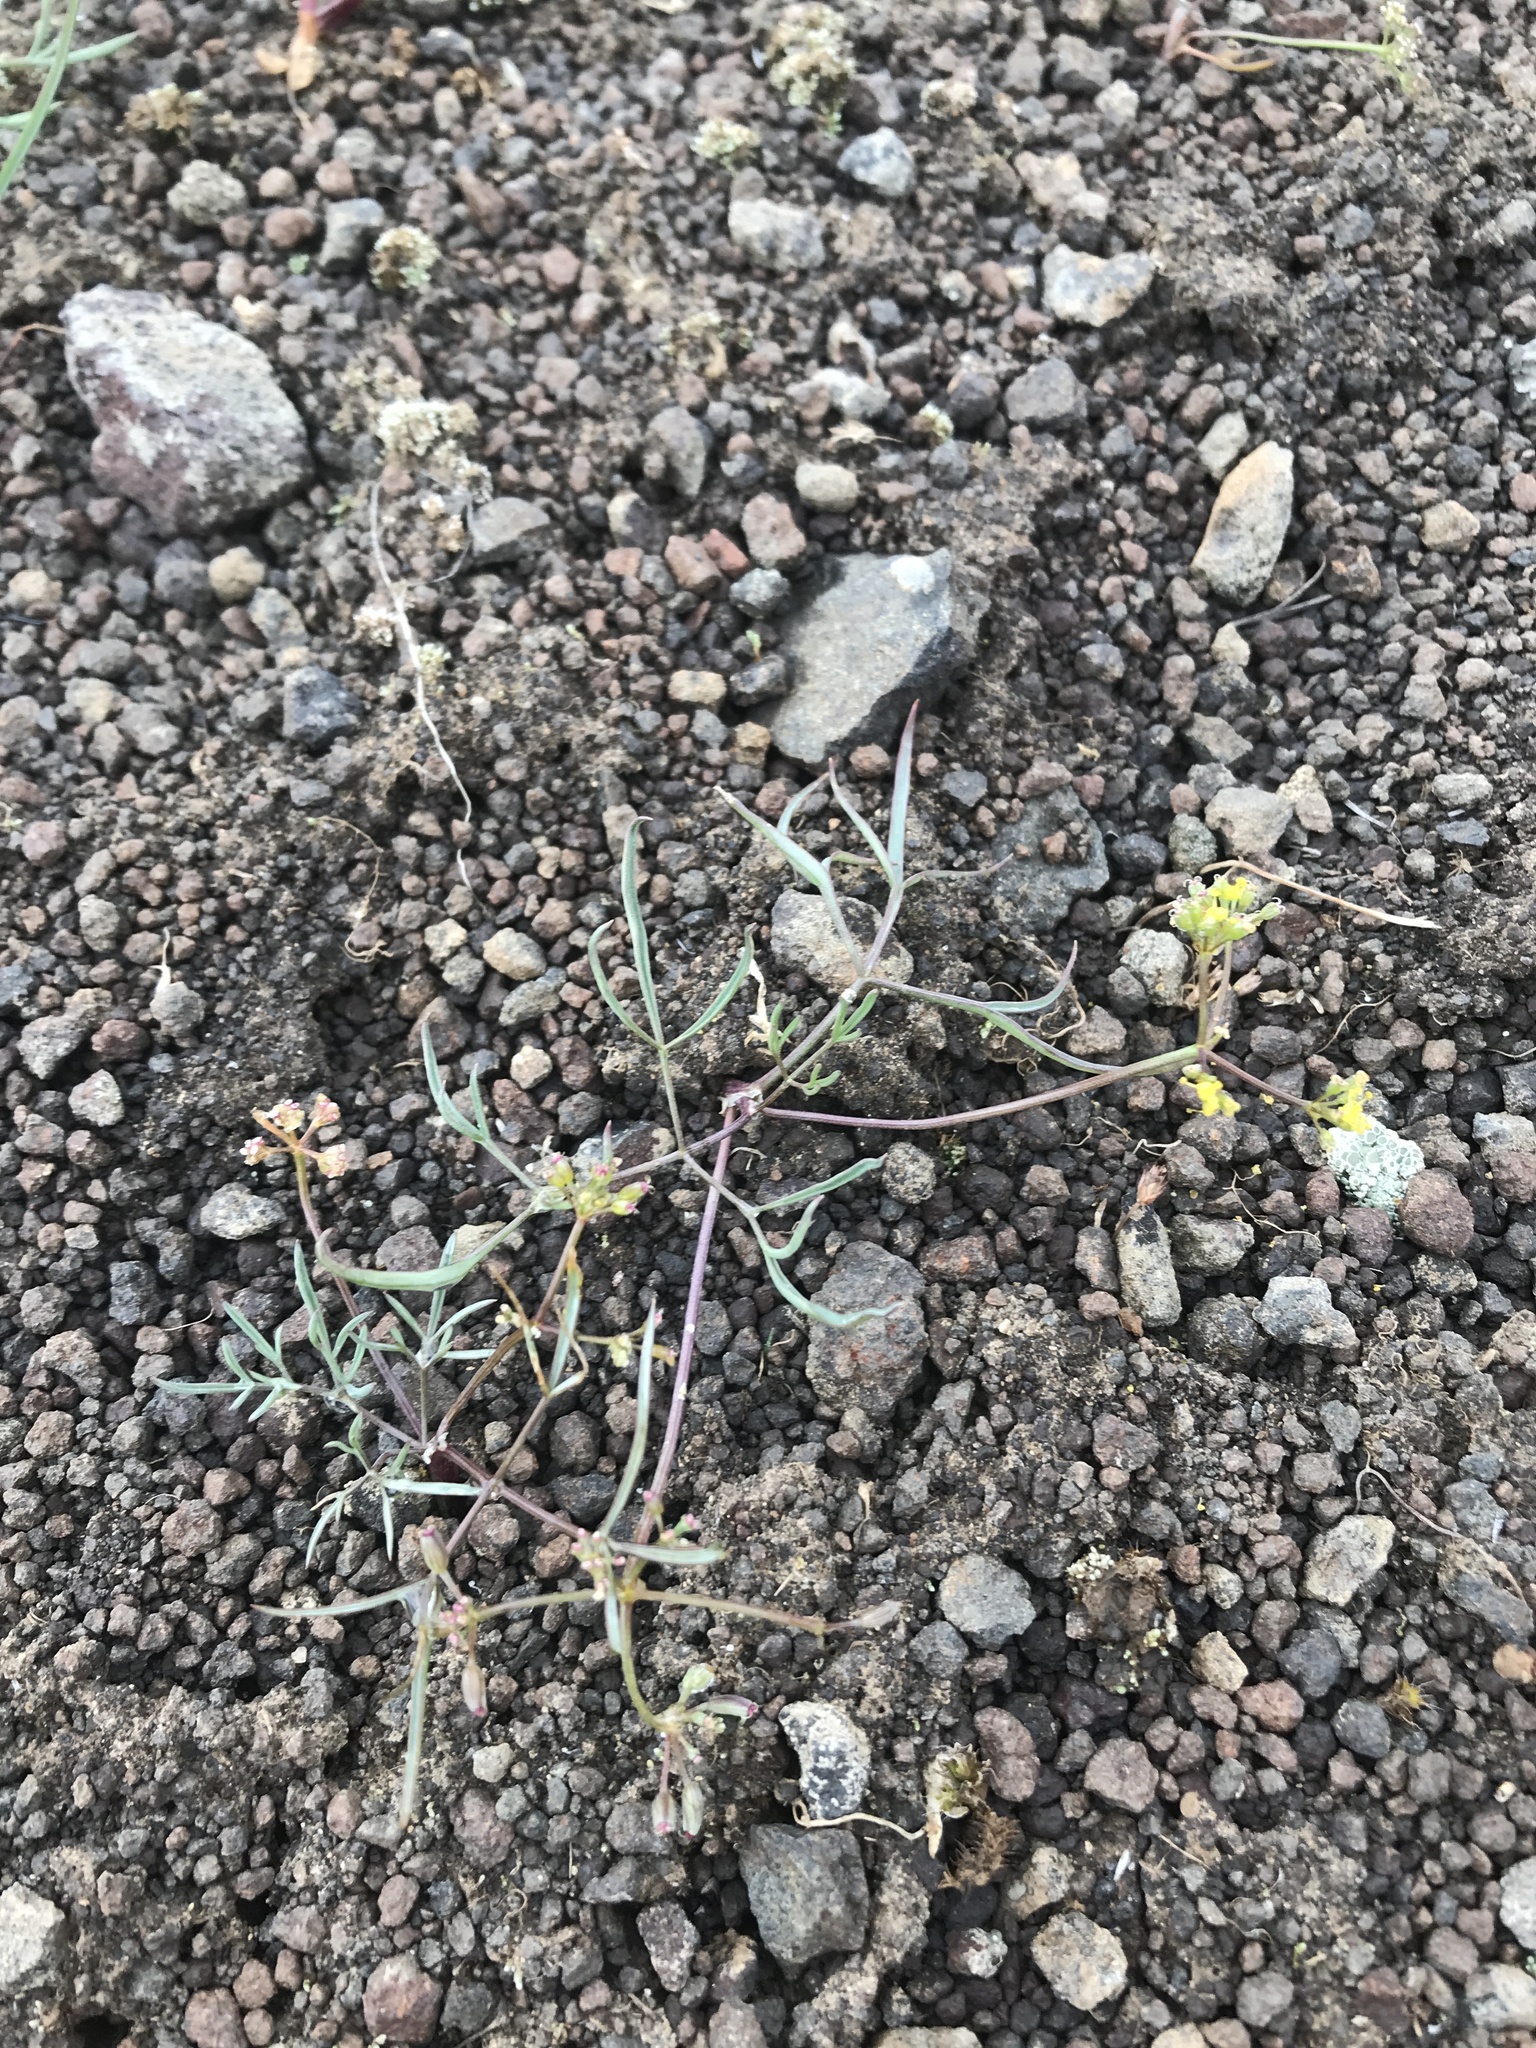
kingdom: Plantae
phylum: Tracheophyta
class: Magnoliopsida
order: Apiales
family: Apiaceae
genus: Lomatium
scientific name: Lomatium farinosum
